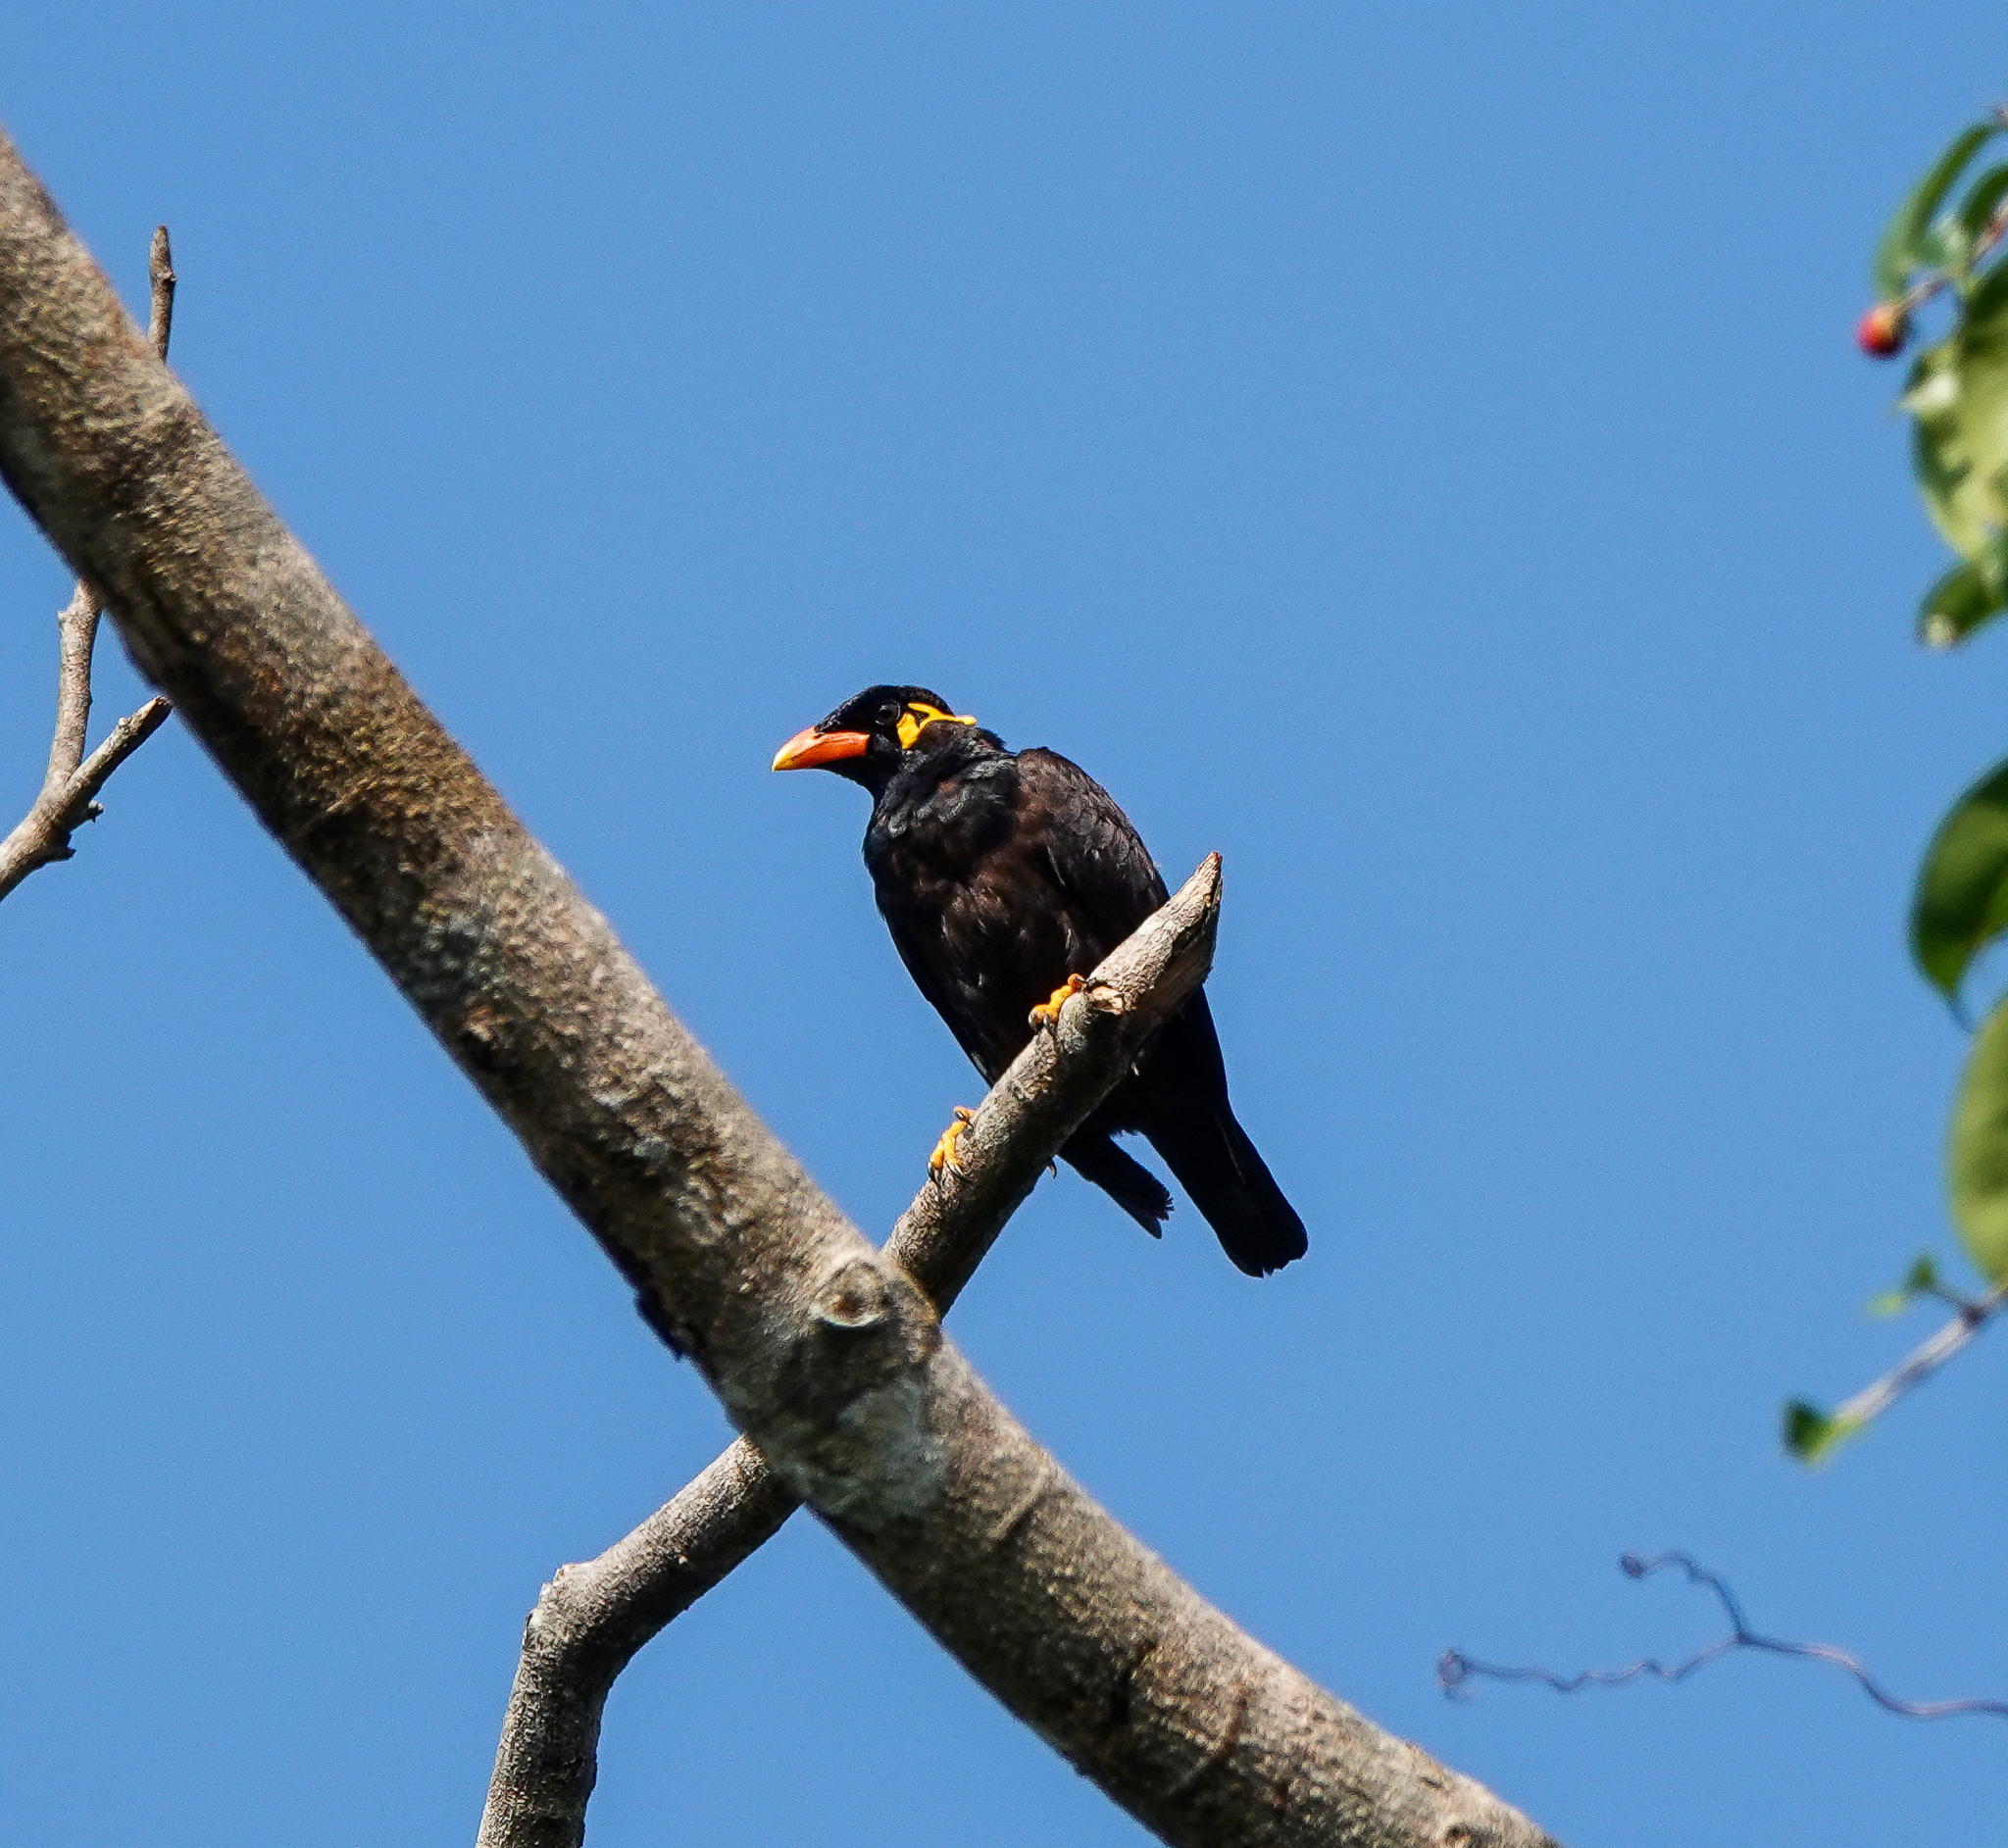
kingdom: Animalia
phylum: Chordata
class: Aves
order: Passeriformes
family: Sturnidae
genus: Gracula
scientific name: Gracula religiosa
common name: Common hill myna
